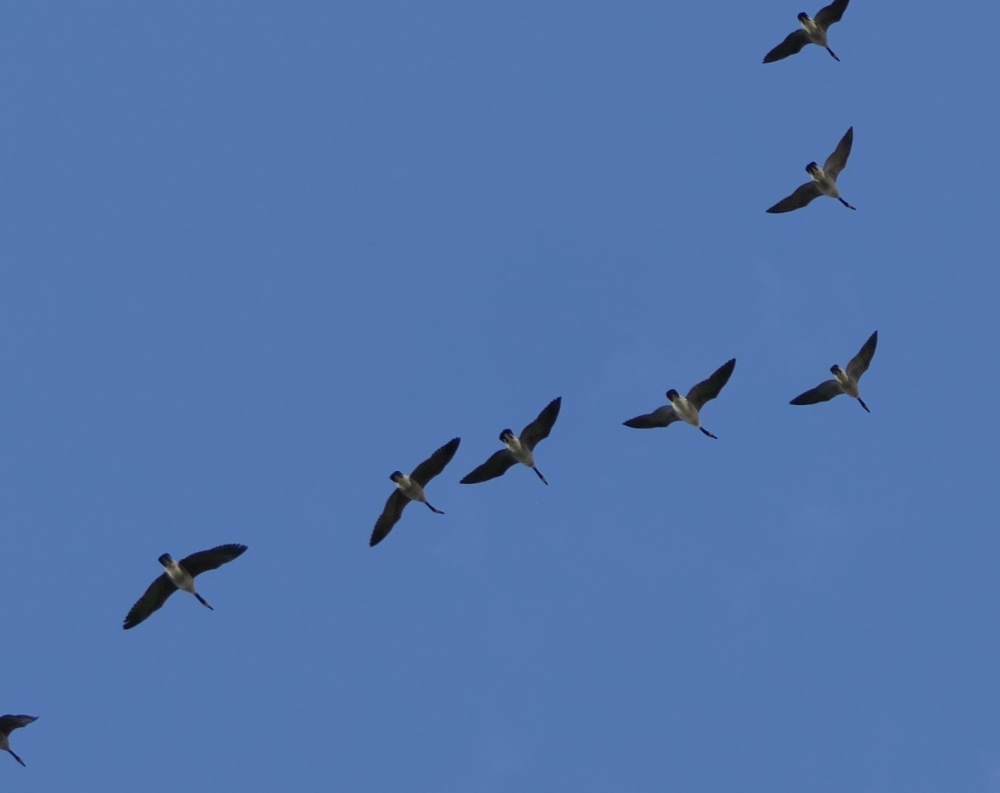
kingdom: Animalia
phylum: Chordata
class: Aves
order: Anseriformes
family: Anatidae
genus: Branta
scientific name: Branta canadensis
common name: Canada goose
